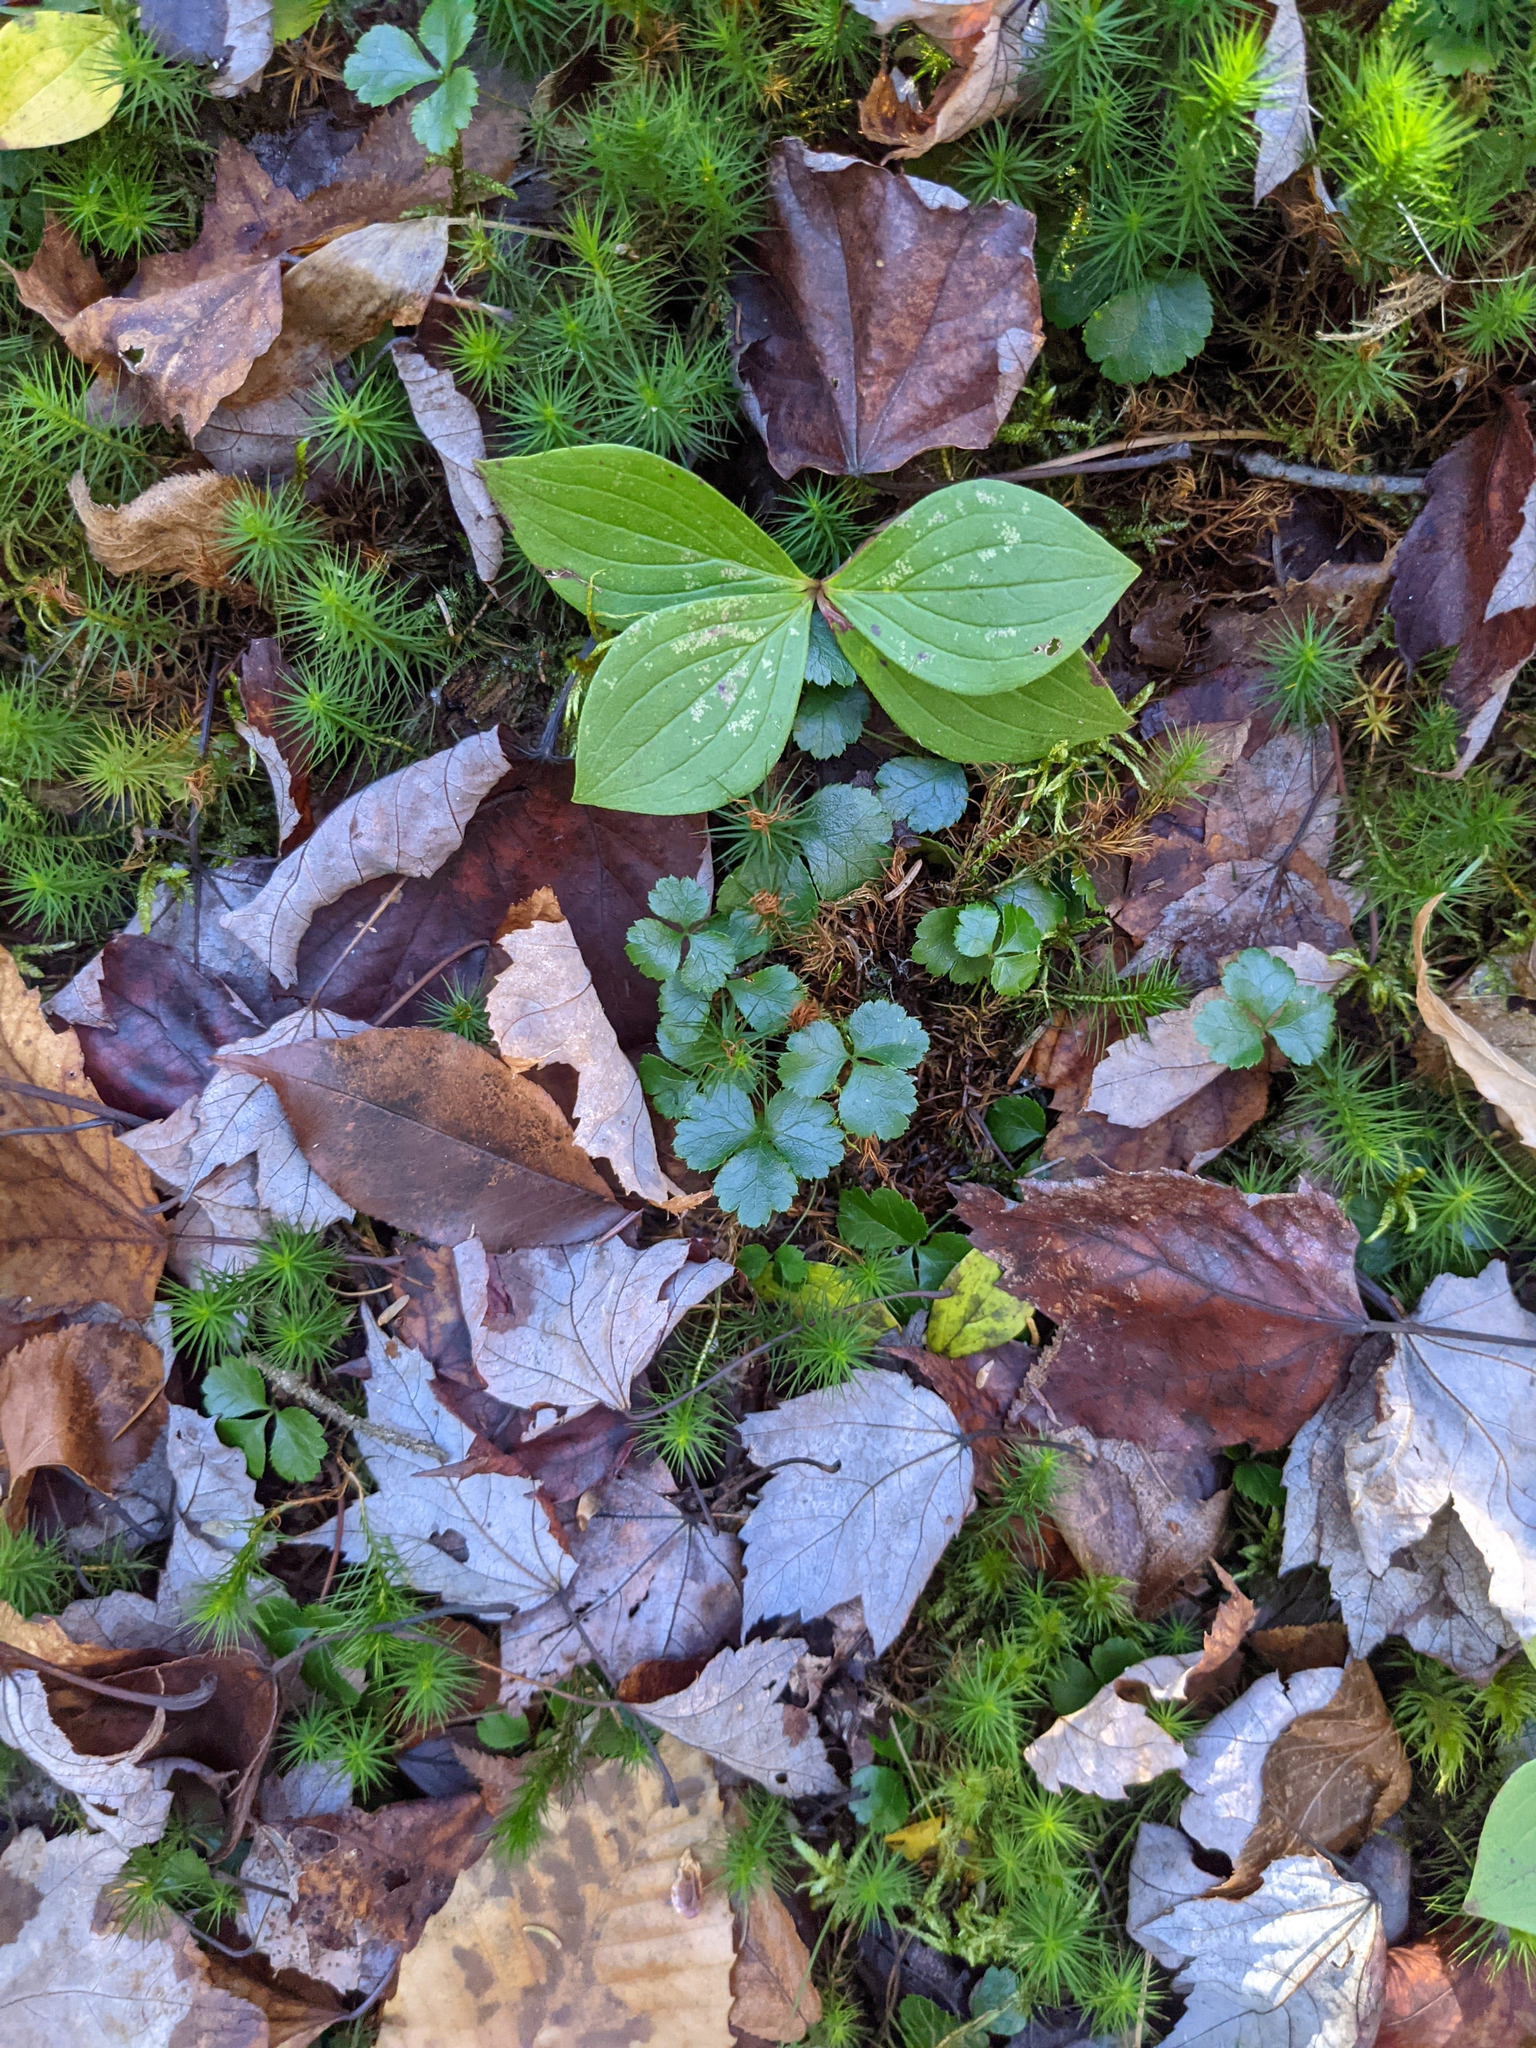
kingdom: Plantae
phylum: Tracheophyta
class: Magnoliopsida
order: Ranunculales
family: Ranunculaceae
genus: Coptis
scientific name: Coptis trifolia
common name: Canker-root
